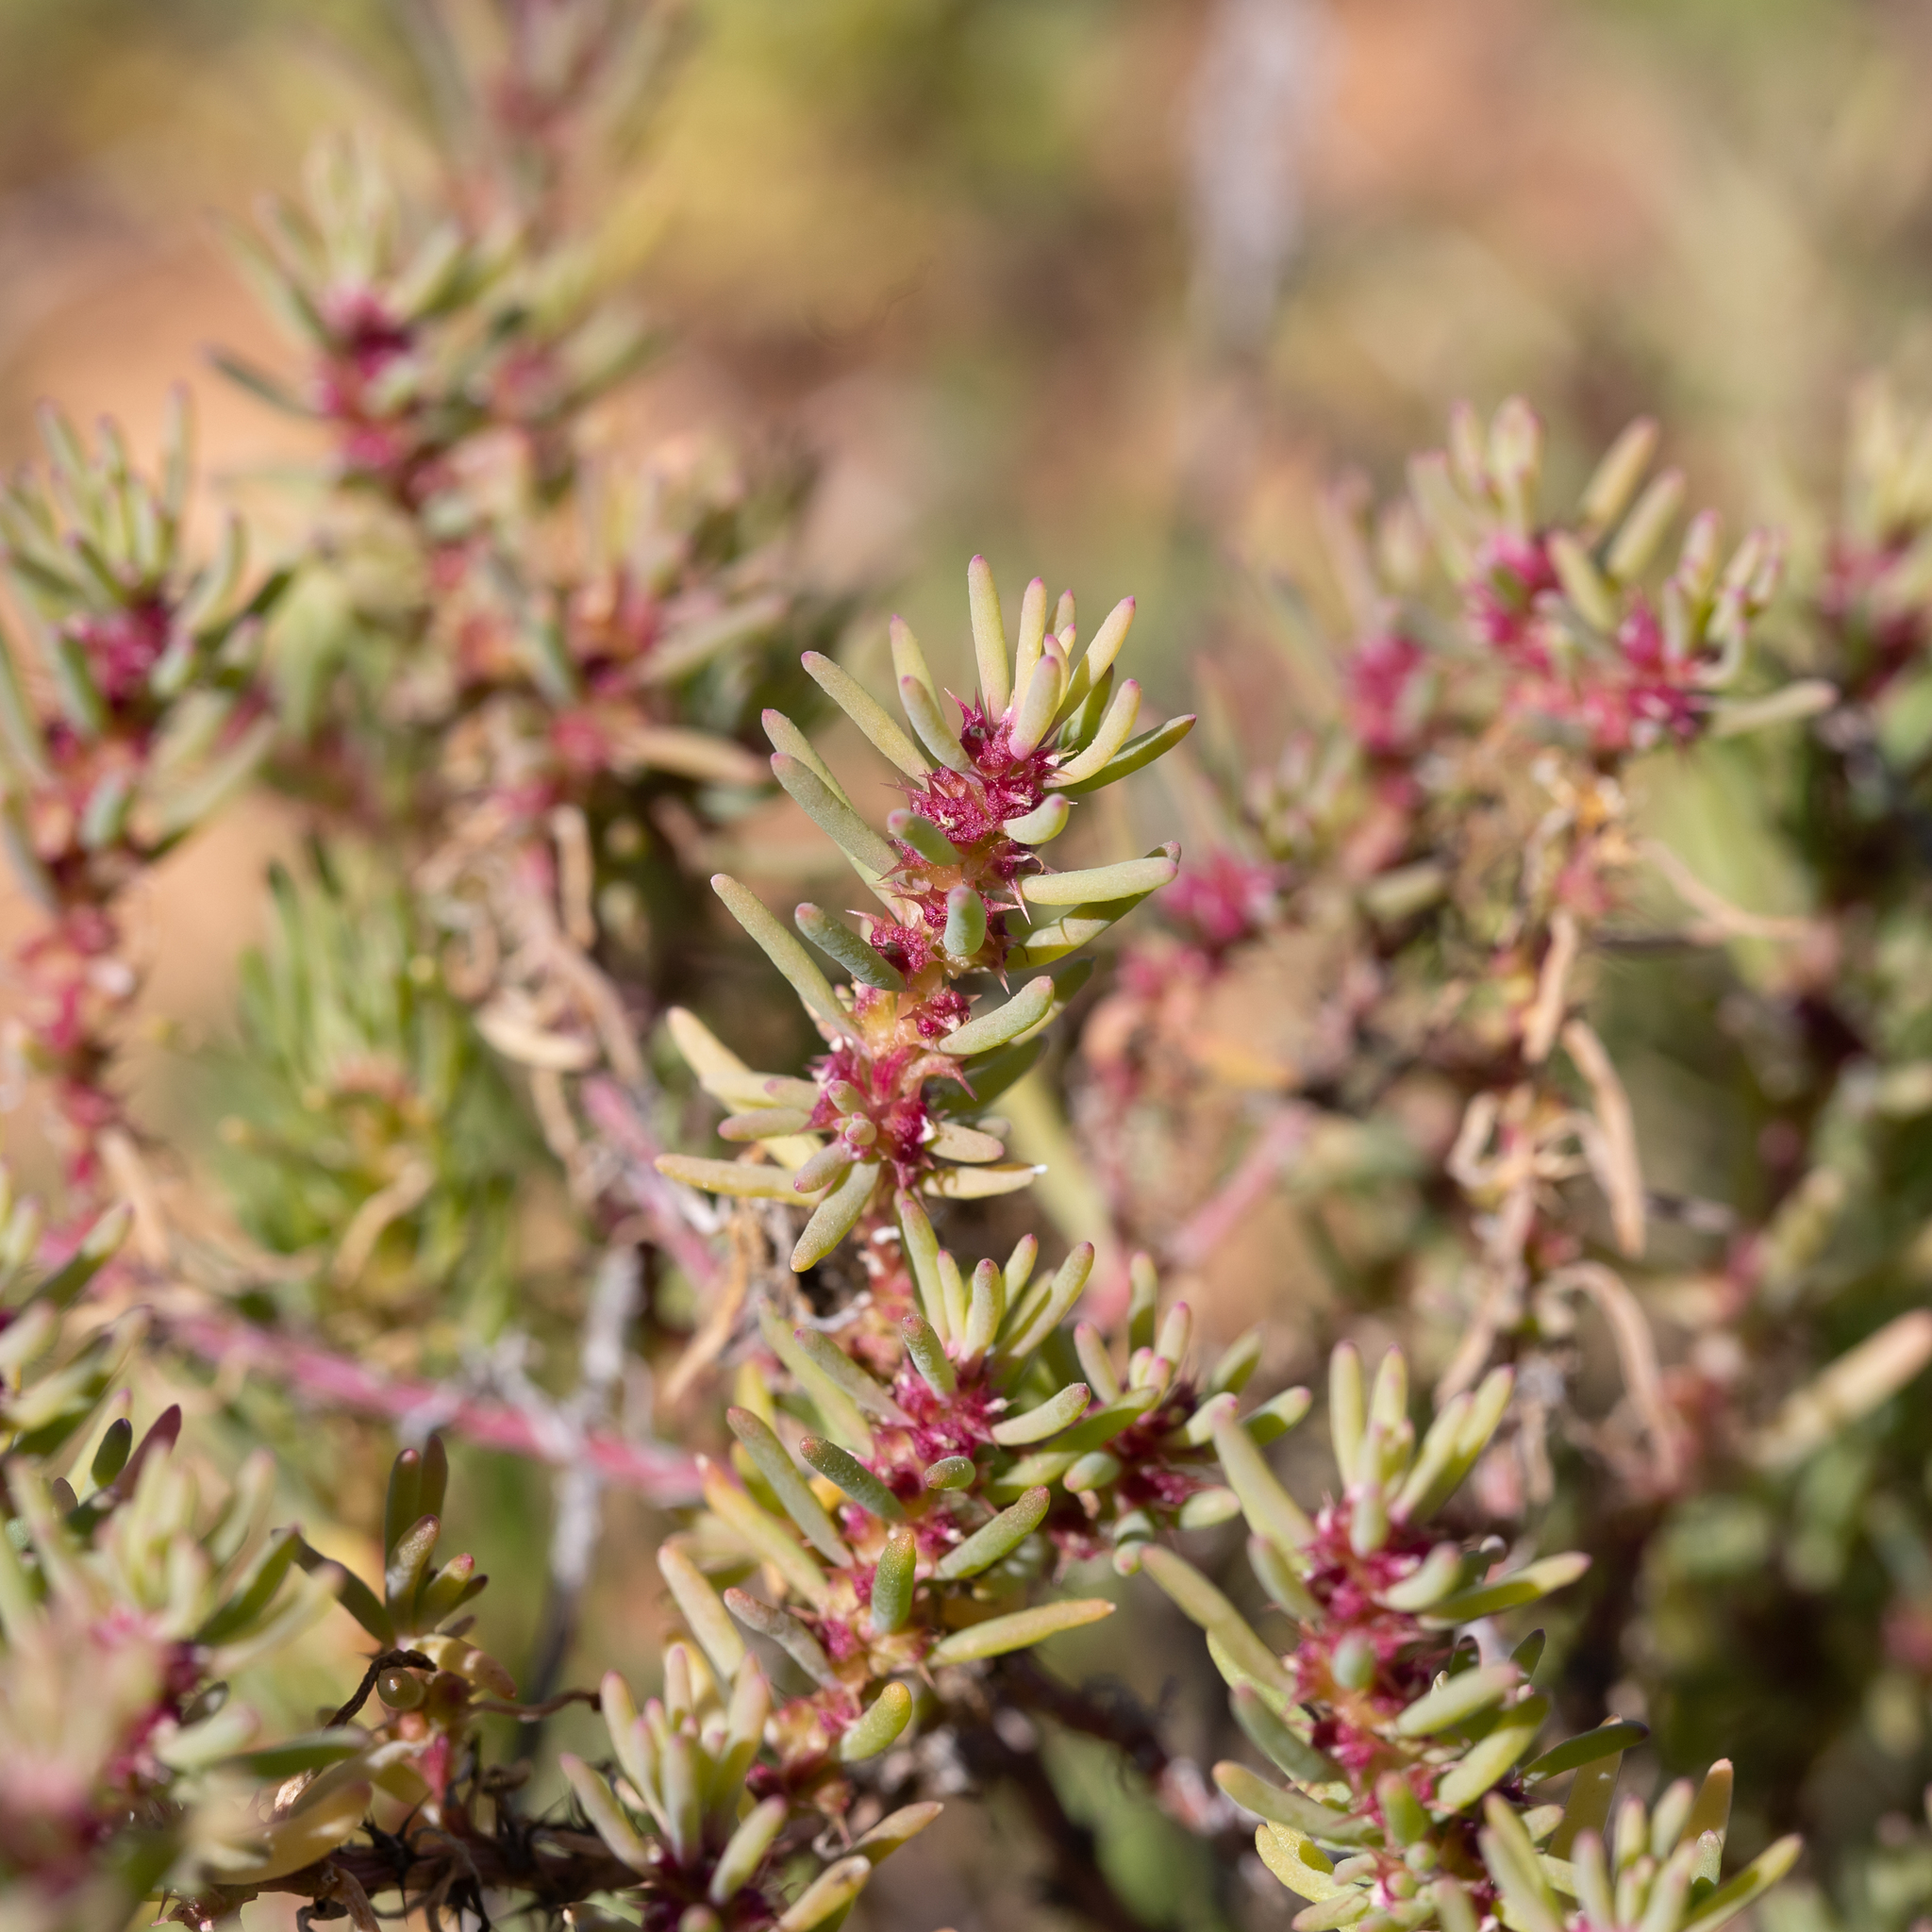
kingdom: Plantae
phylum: Tracheophyta
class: Magnoliopsida
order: Caryophyllales
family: Amaranthaceae
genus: Sclerolaena
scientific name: Sclerolaena calcarata
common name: Red copperbur
